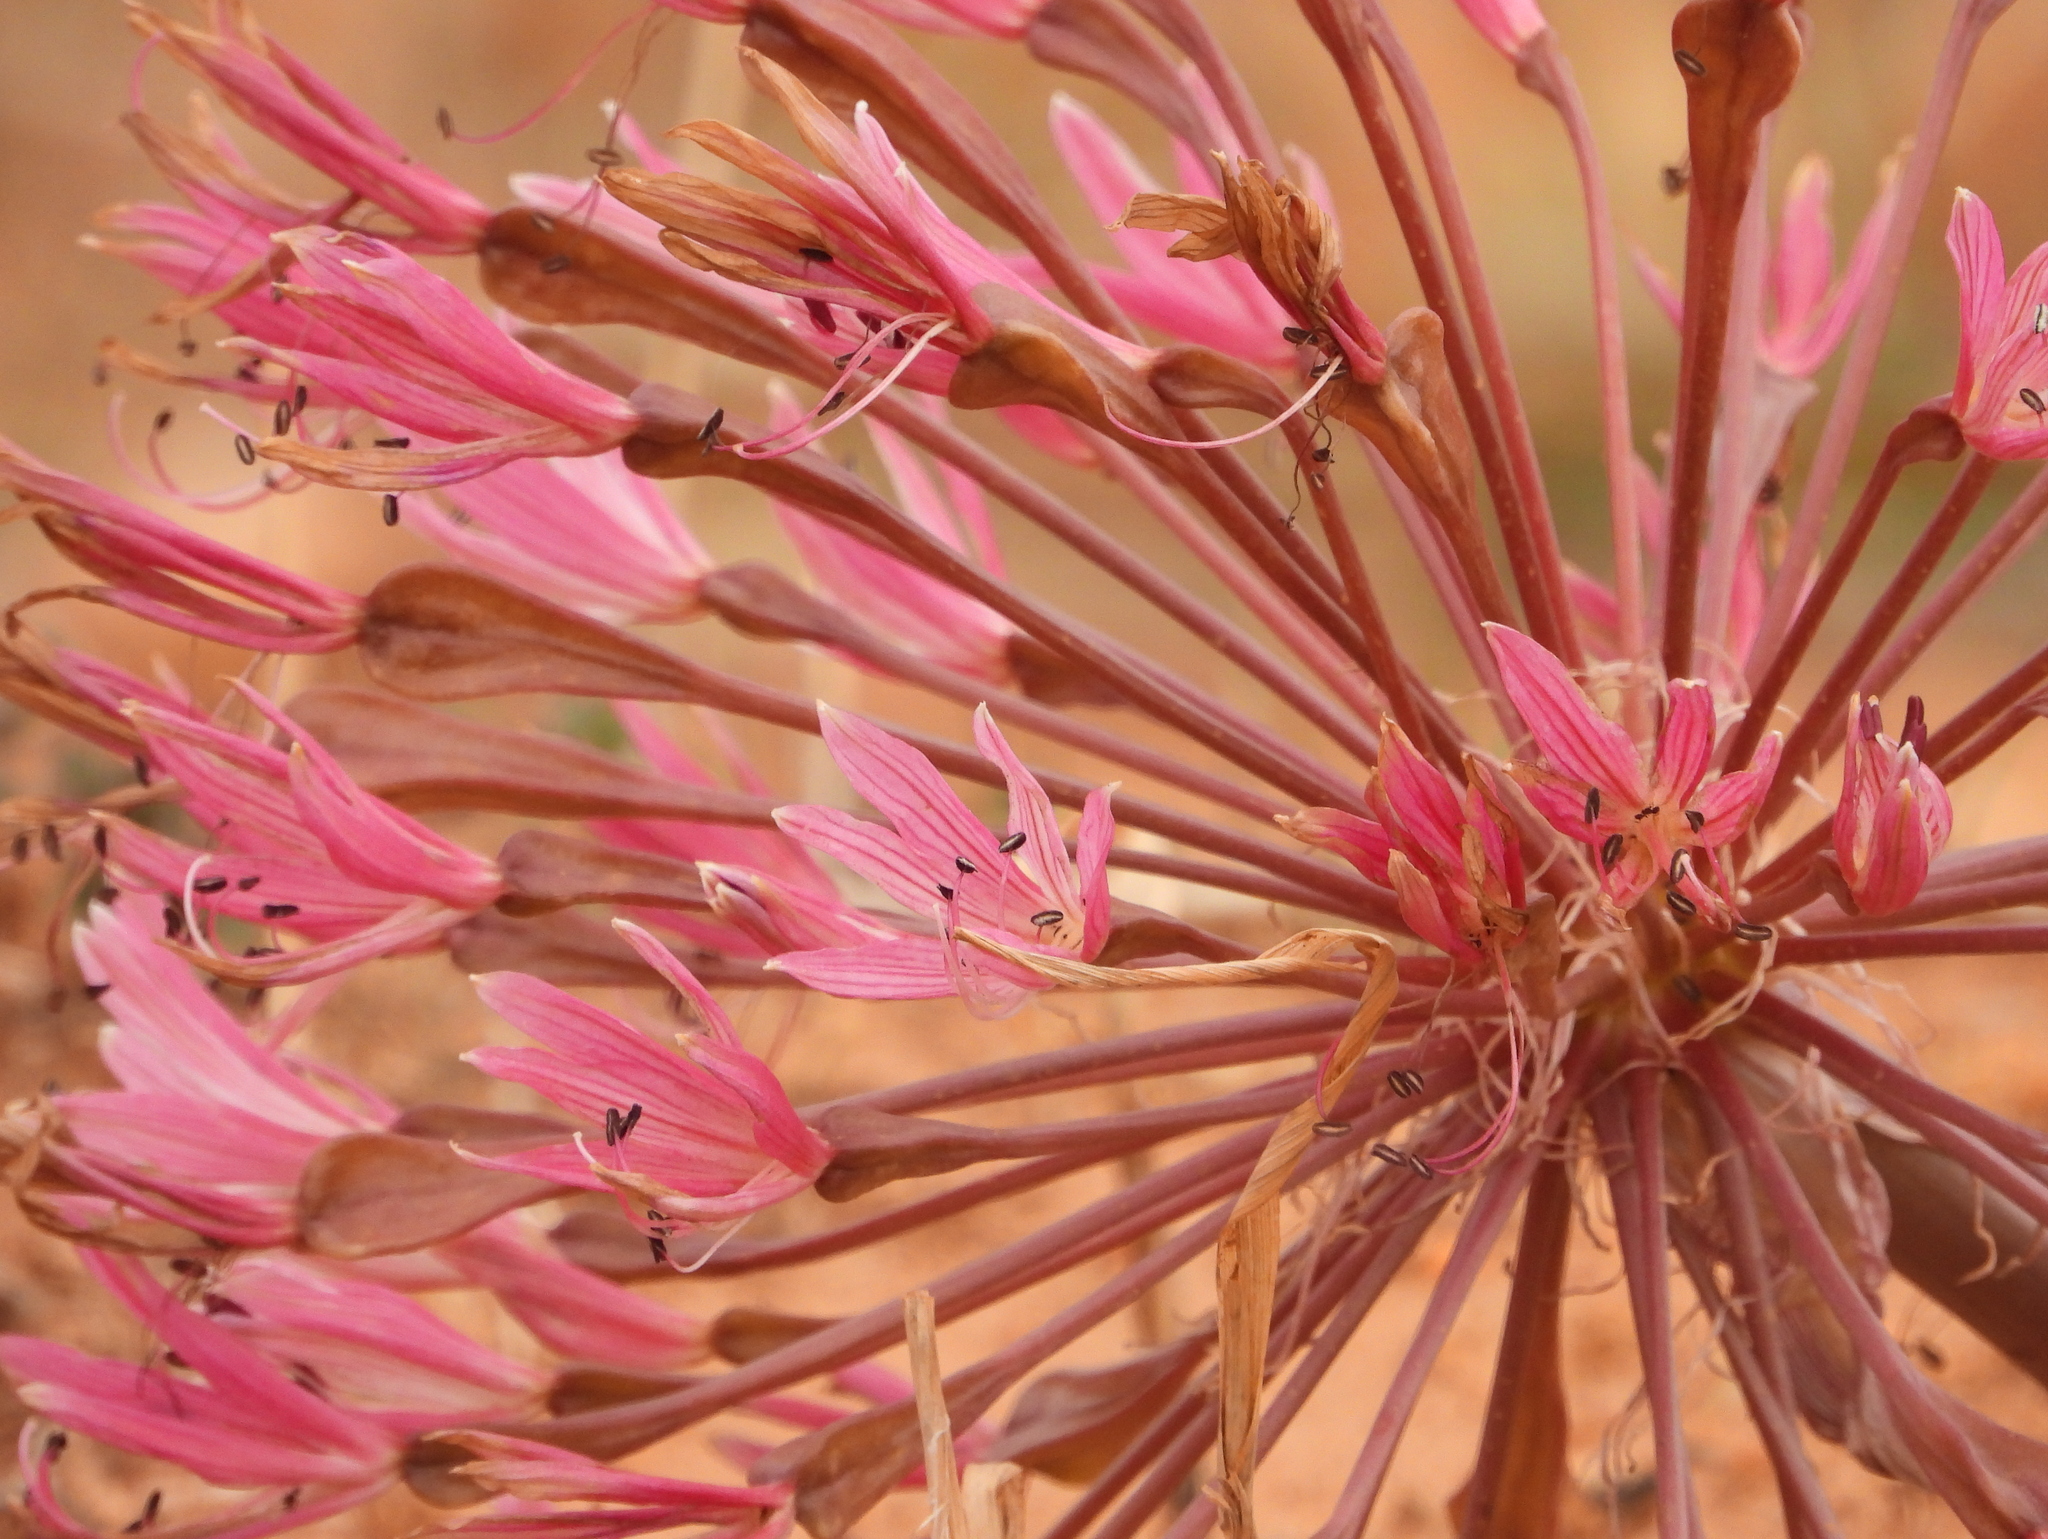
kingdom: Plantae
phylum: Tracheophyta
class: Liliopsida
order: Asparagales
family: Amaryllidaceae
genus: Brunsvigia
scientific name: Brunsvigia bosmaniae
